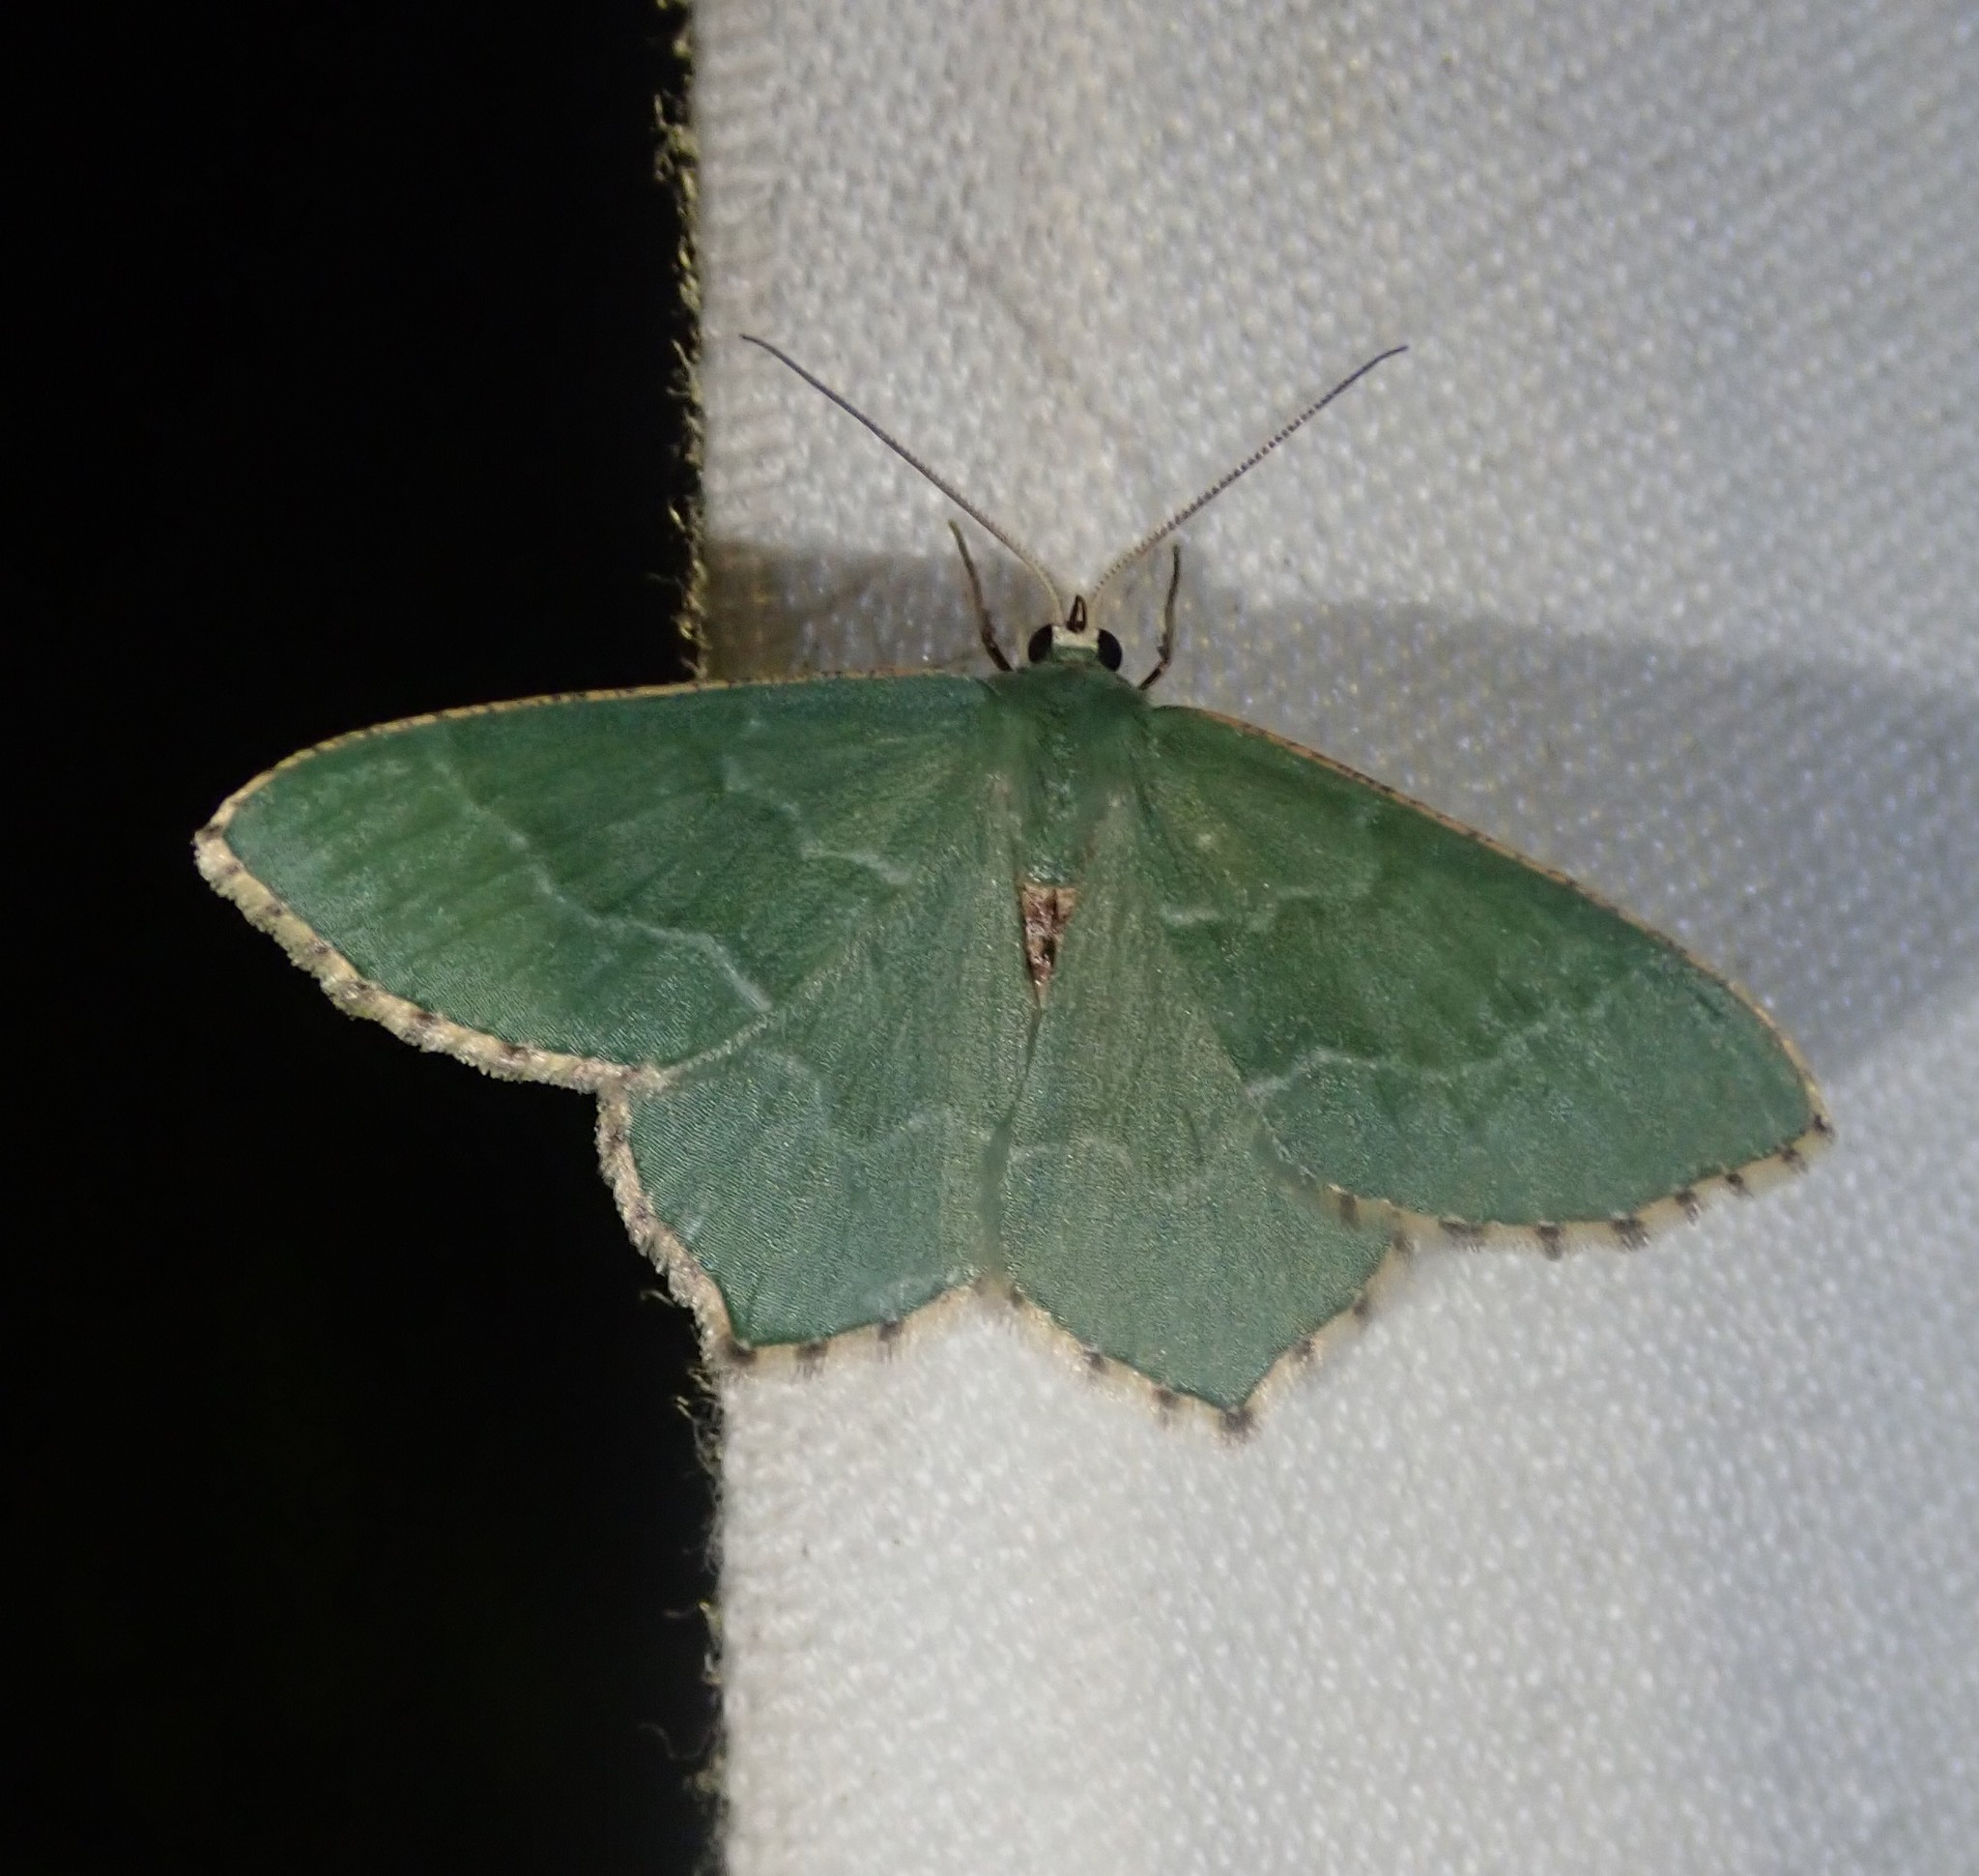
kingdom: Animalia
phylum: Arthropoda
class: Insecta
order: Lepidoptera
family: Geometridae
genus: Hemithea
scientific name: Hemithea aestivaria
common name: Common emerald
